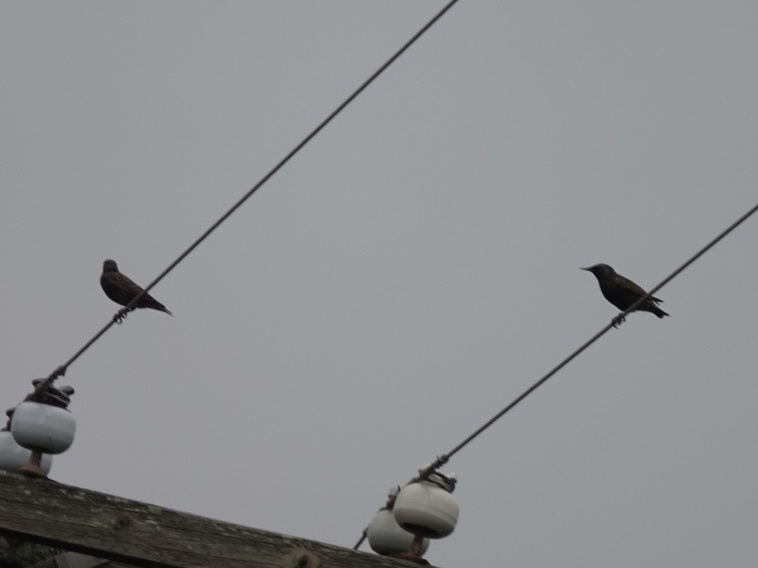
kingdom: Animalia
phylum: Chordata
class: Aves
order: Passeriformes
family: Sturnidae
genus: Sturnus
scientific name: Sturnus vulgaris
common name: Common starling
